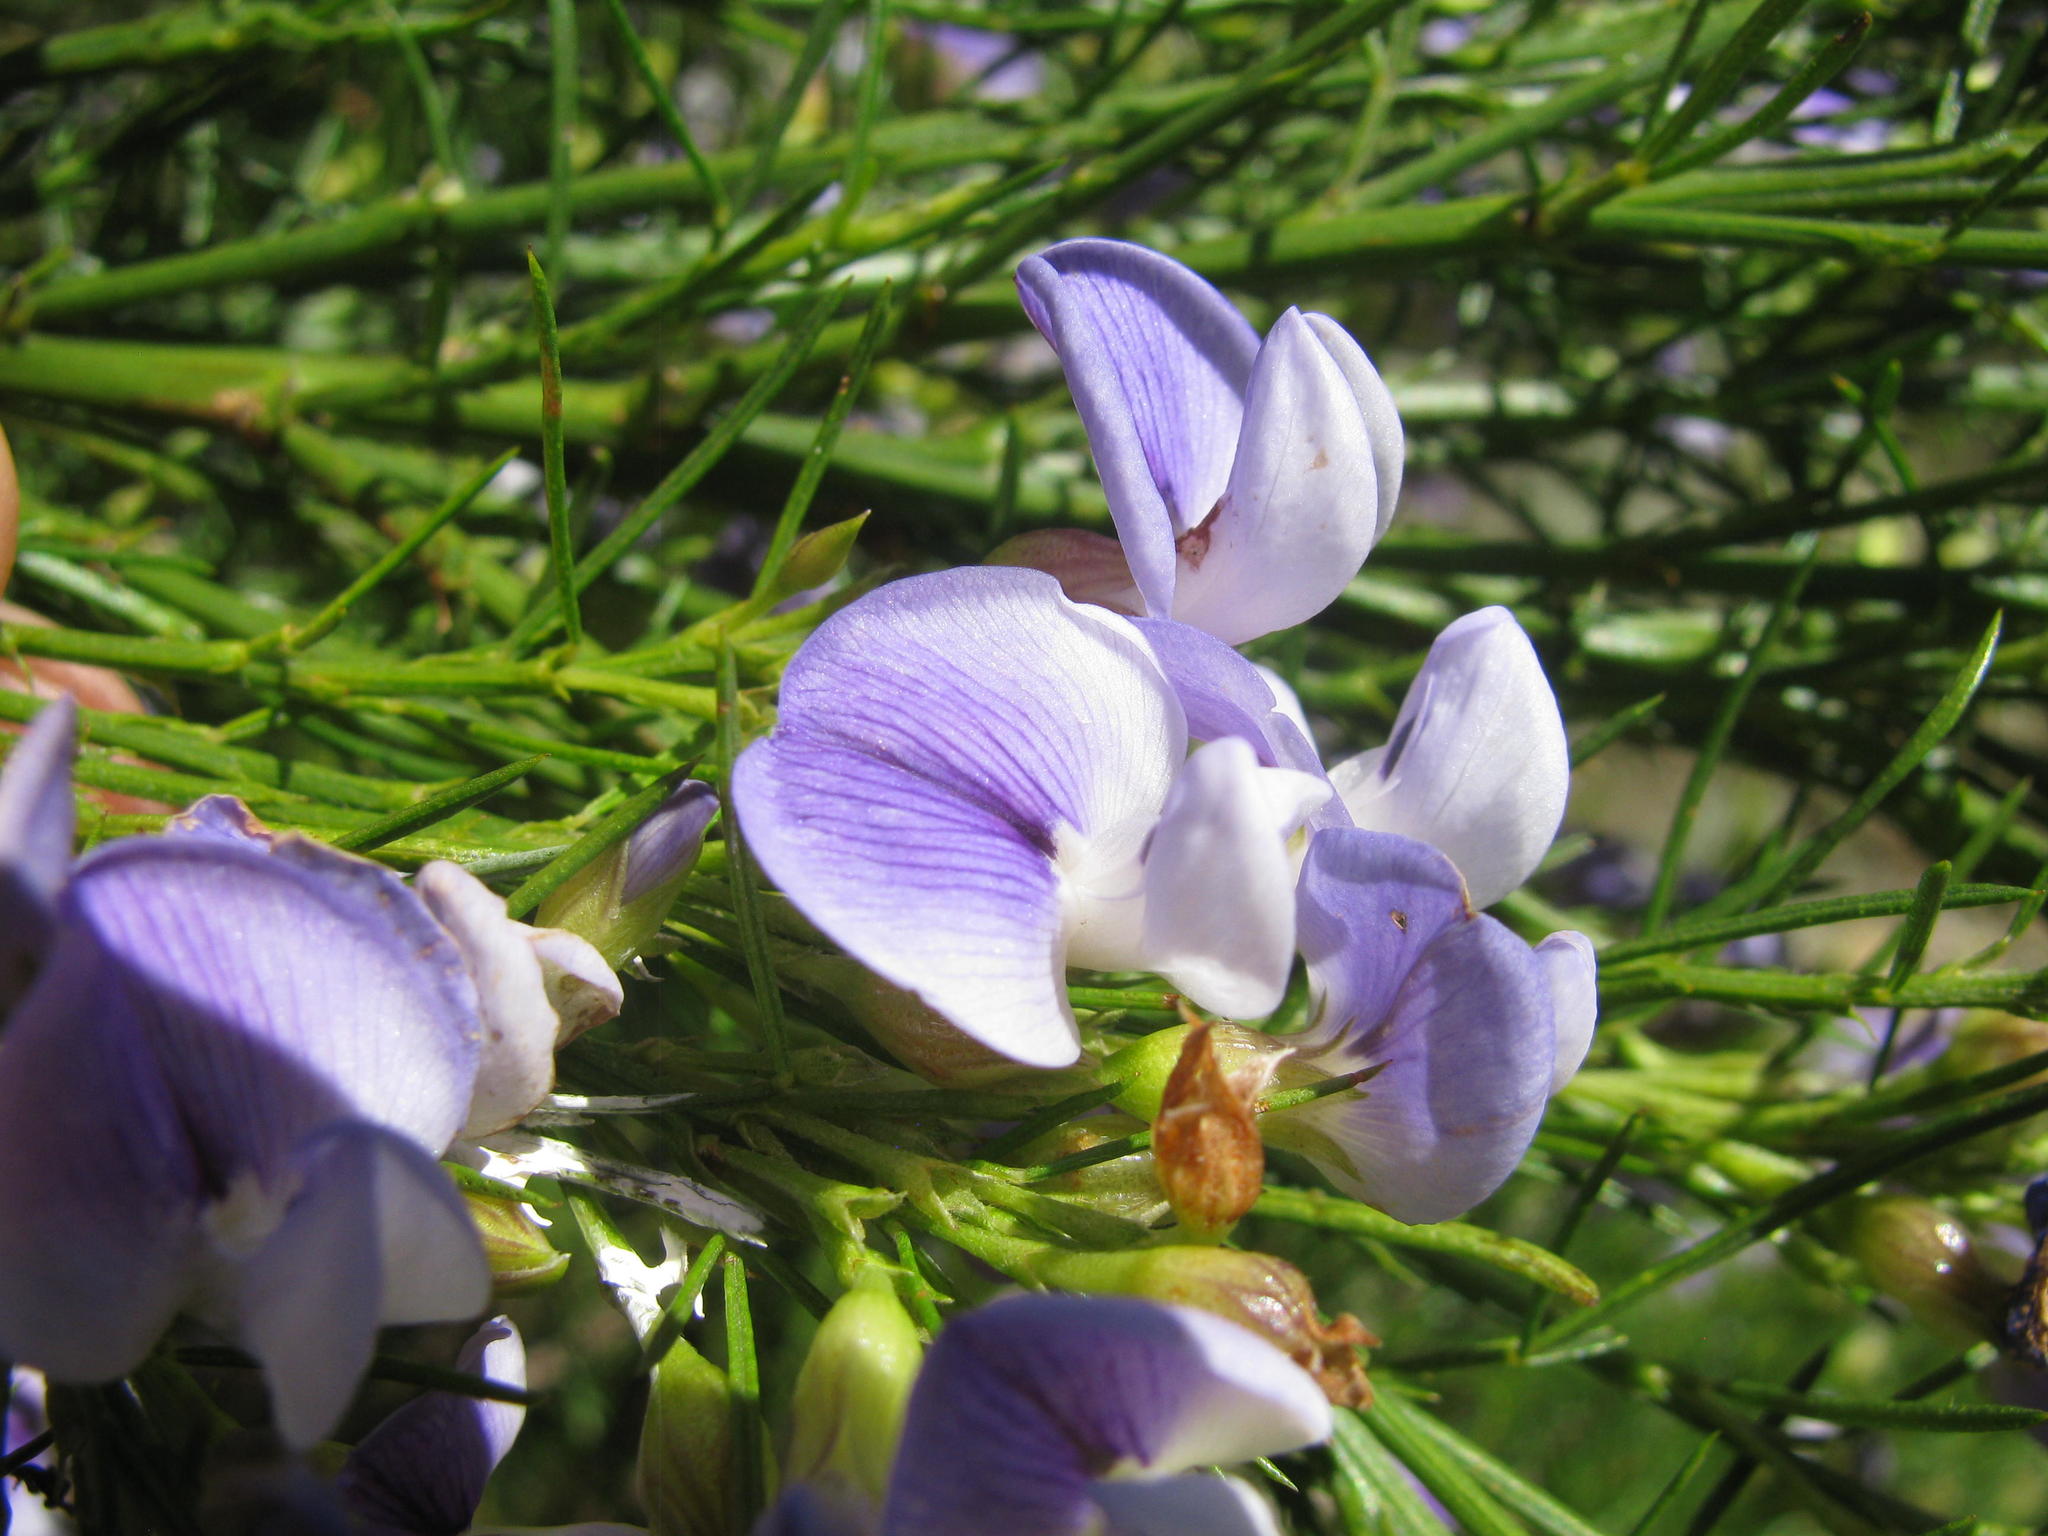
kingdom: Plantae
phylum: Tracheophyta
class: Magnoliopsida
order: Fabales
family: Fabaceae
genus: Psoralea
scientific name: Psoralea filifolia
